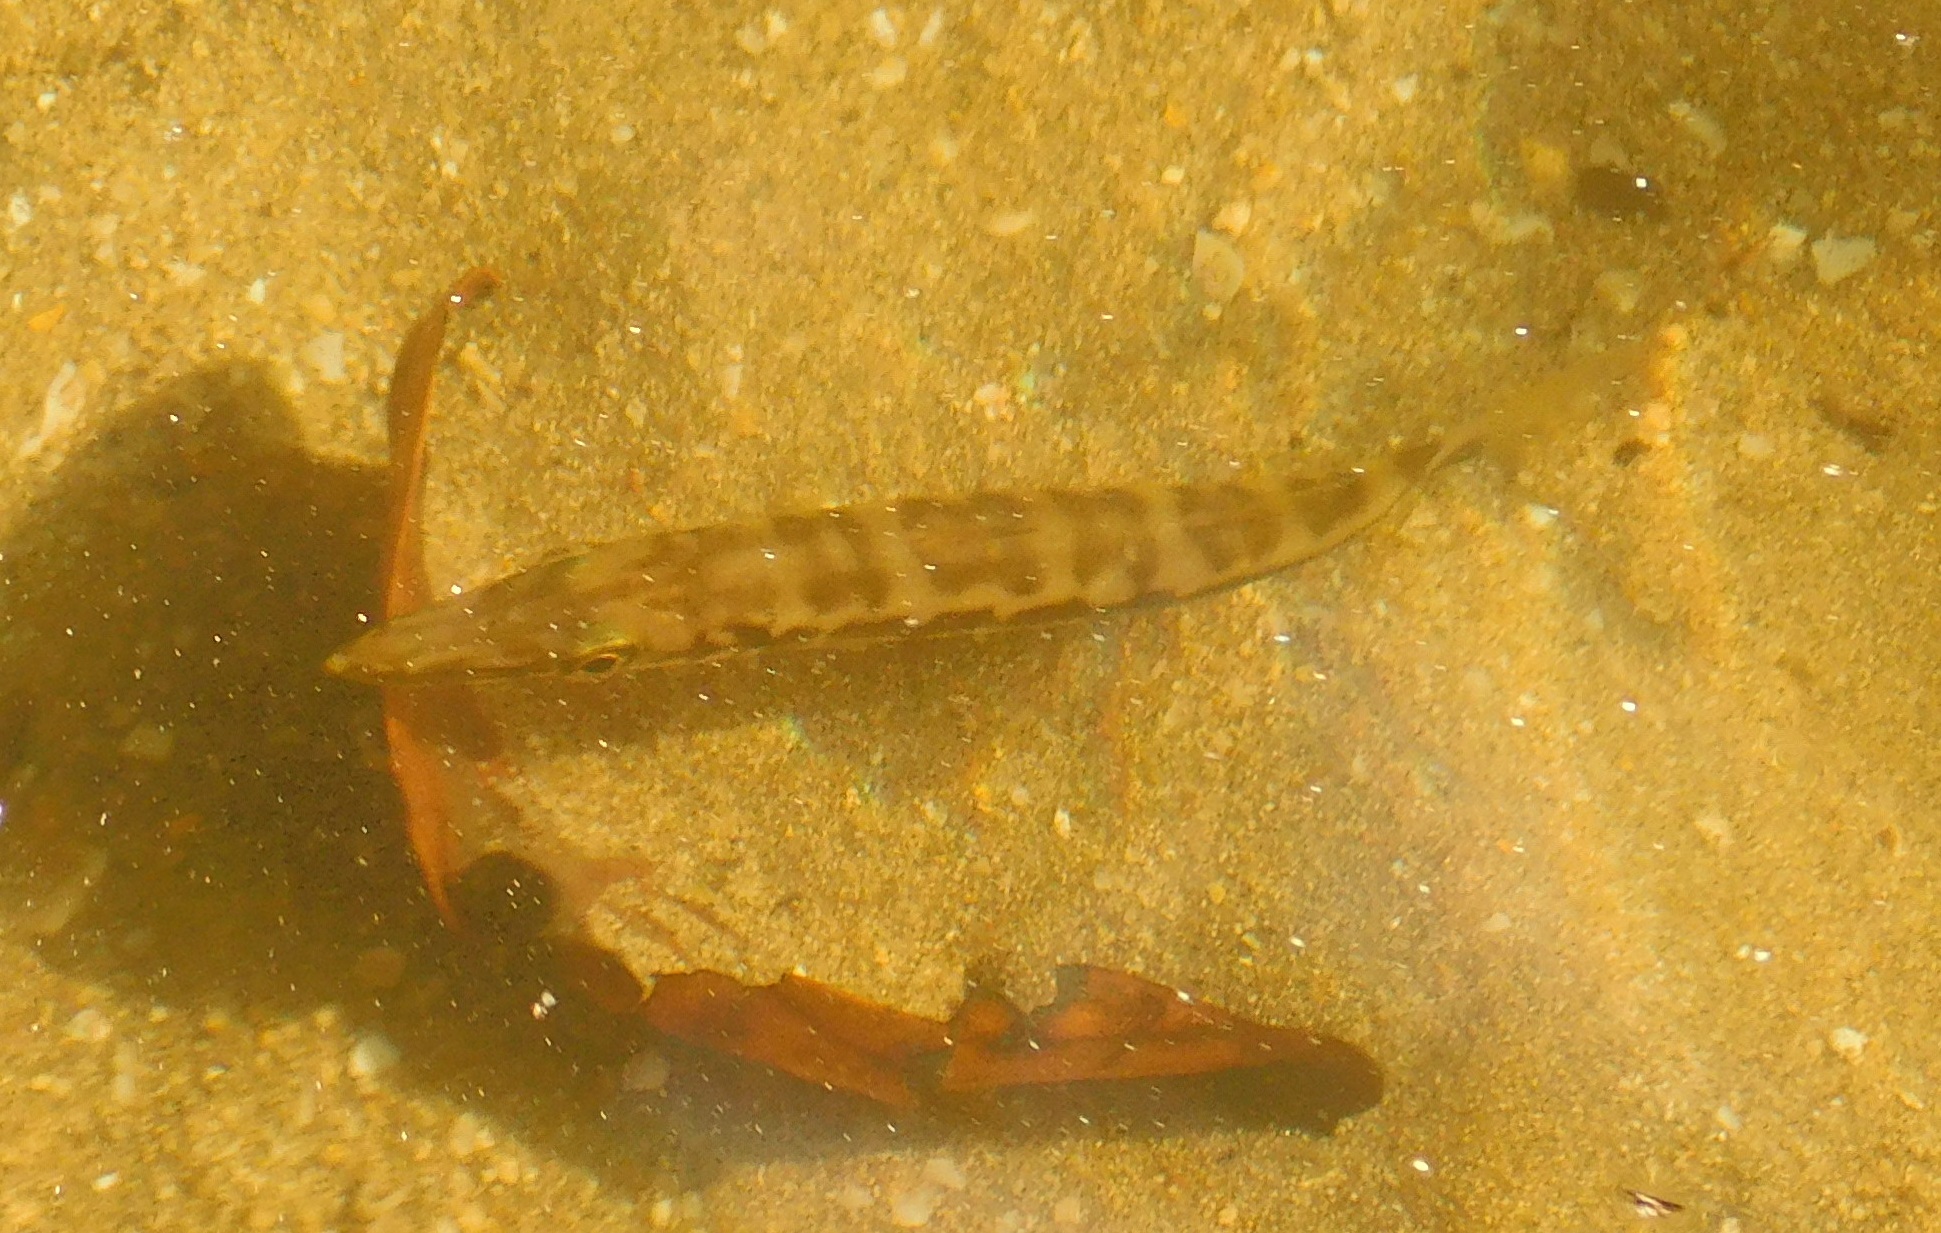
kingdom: Animalia
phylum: Chordata
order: Perciformes
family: Sphyraenidae
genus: Sphyraena
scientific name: Sphyraena barracuda
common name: Great barracuda
